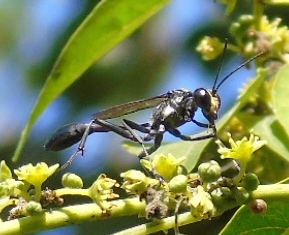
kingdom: Animalia
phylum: Arthropoda
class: Insecta
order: Hymenoptera
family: Sphecidae
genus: Eremnophila
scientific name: Eremnophila
